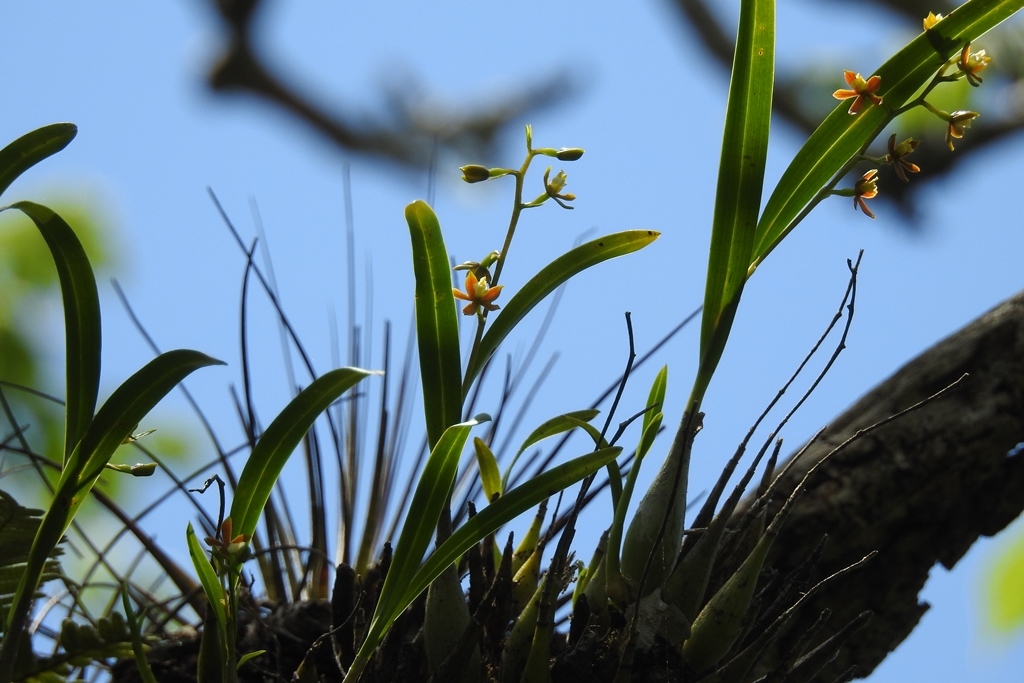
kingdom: Plantae
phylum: Tracheophyta
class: Liliopsida
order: Asparagales
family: Orchidaceae
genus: Prosthechea
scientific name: Prosthechea ochracea
